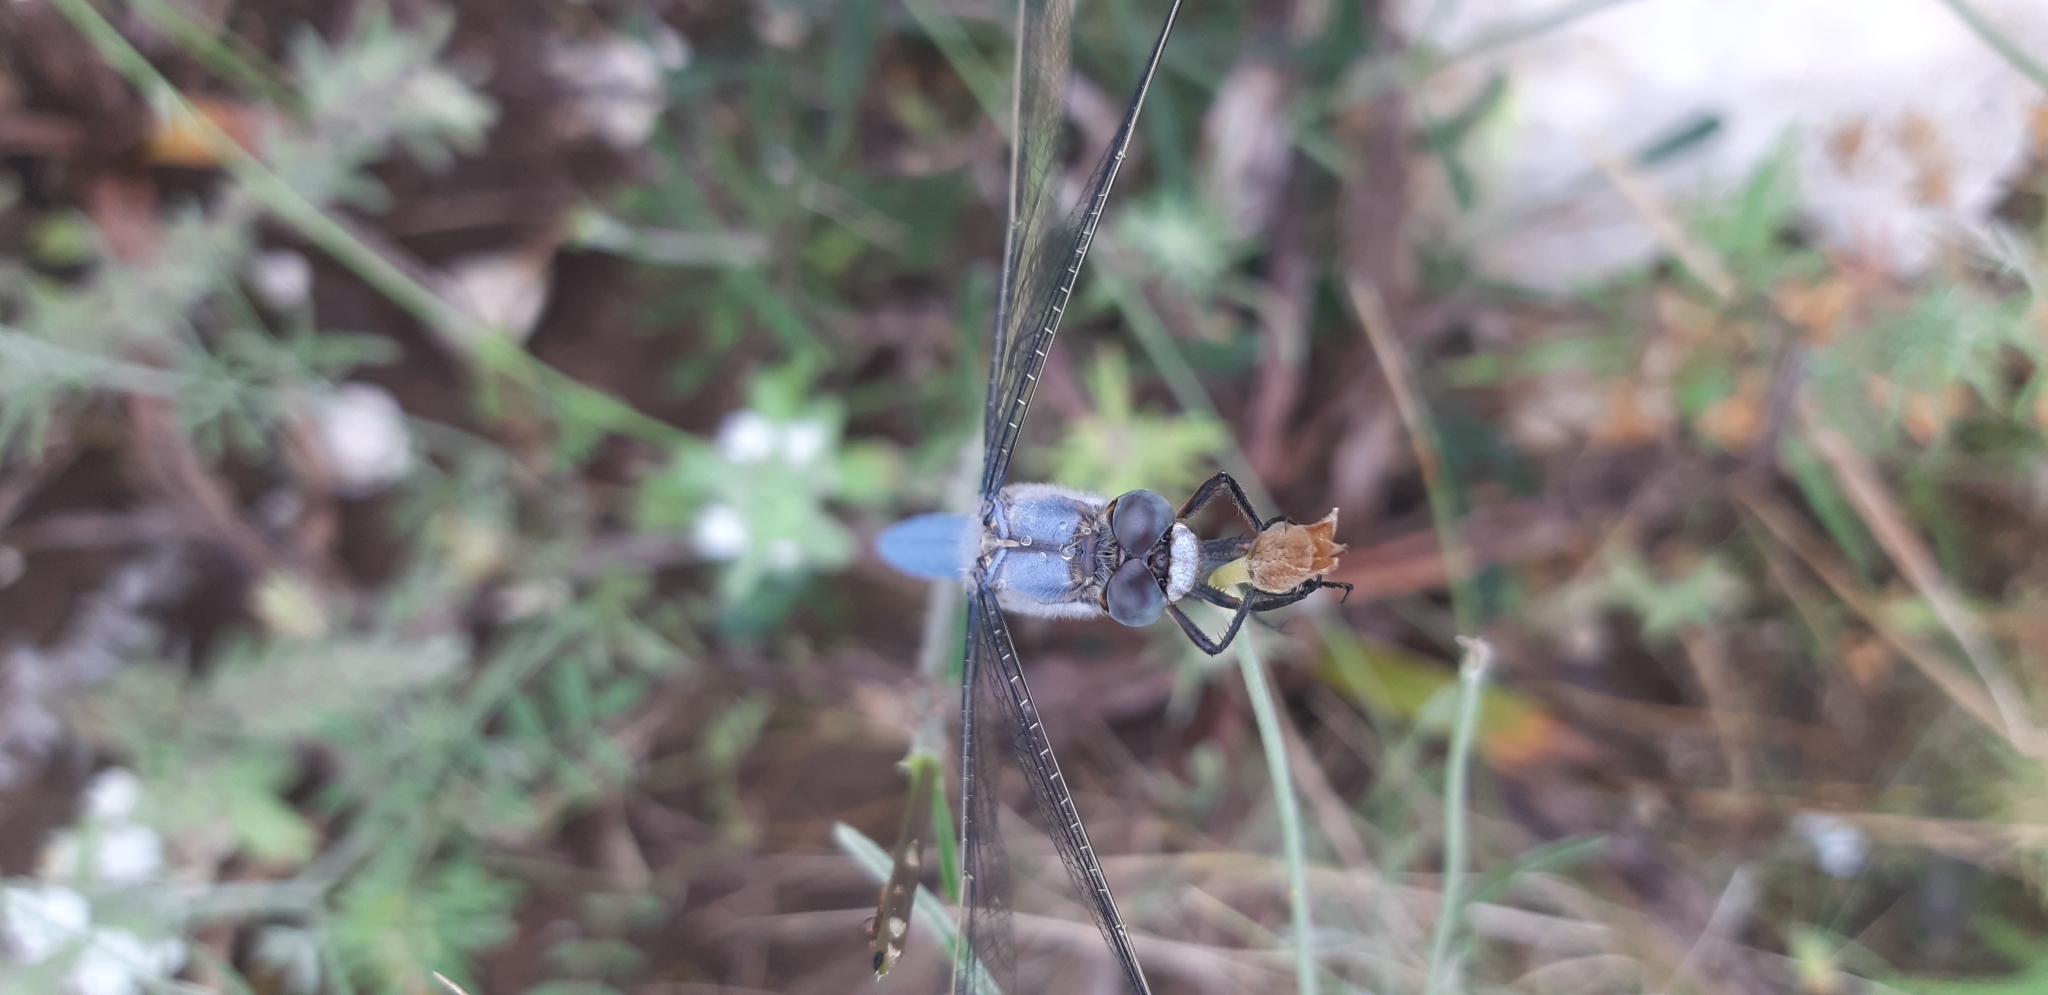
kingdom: Animalia
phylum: Arthropoda
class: Insecta
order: Odonata
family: Libellulidae
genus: Orthetrum
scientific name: Orthetrum brunneum
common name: Southern skimmer
